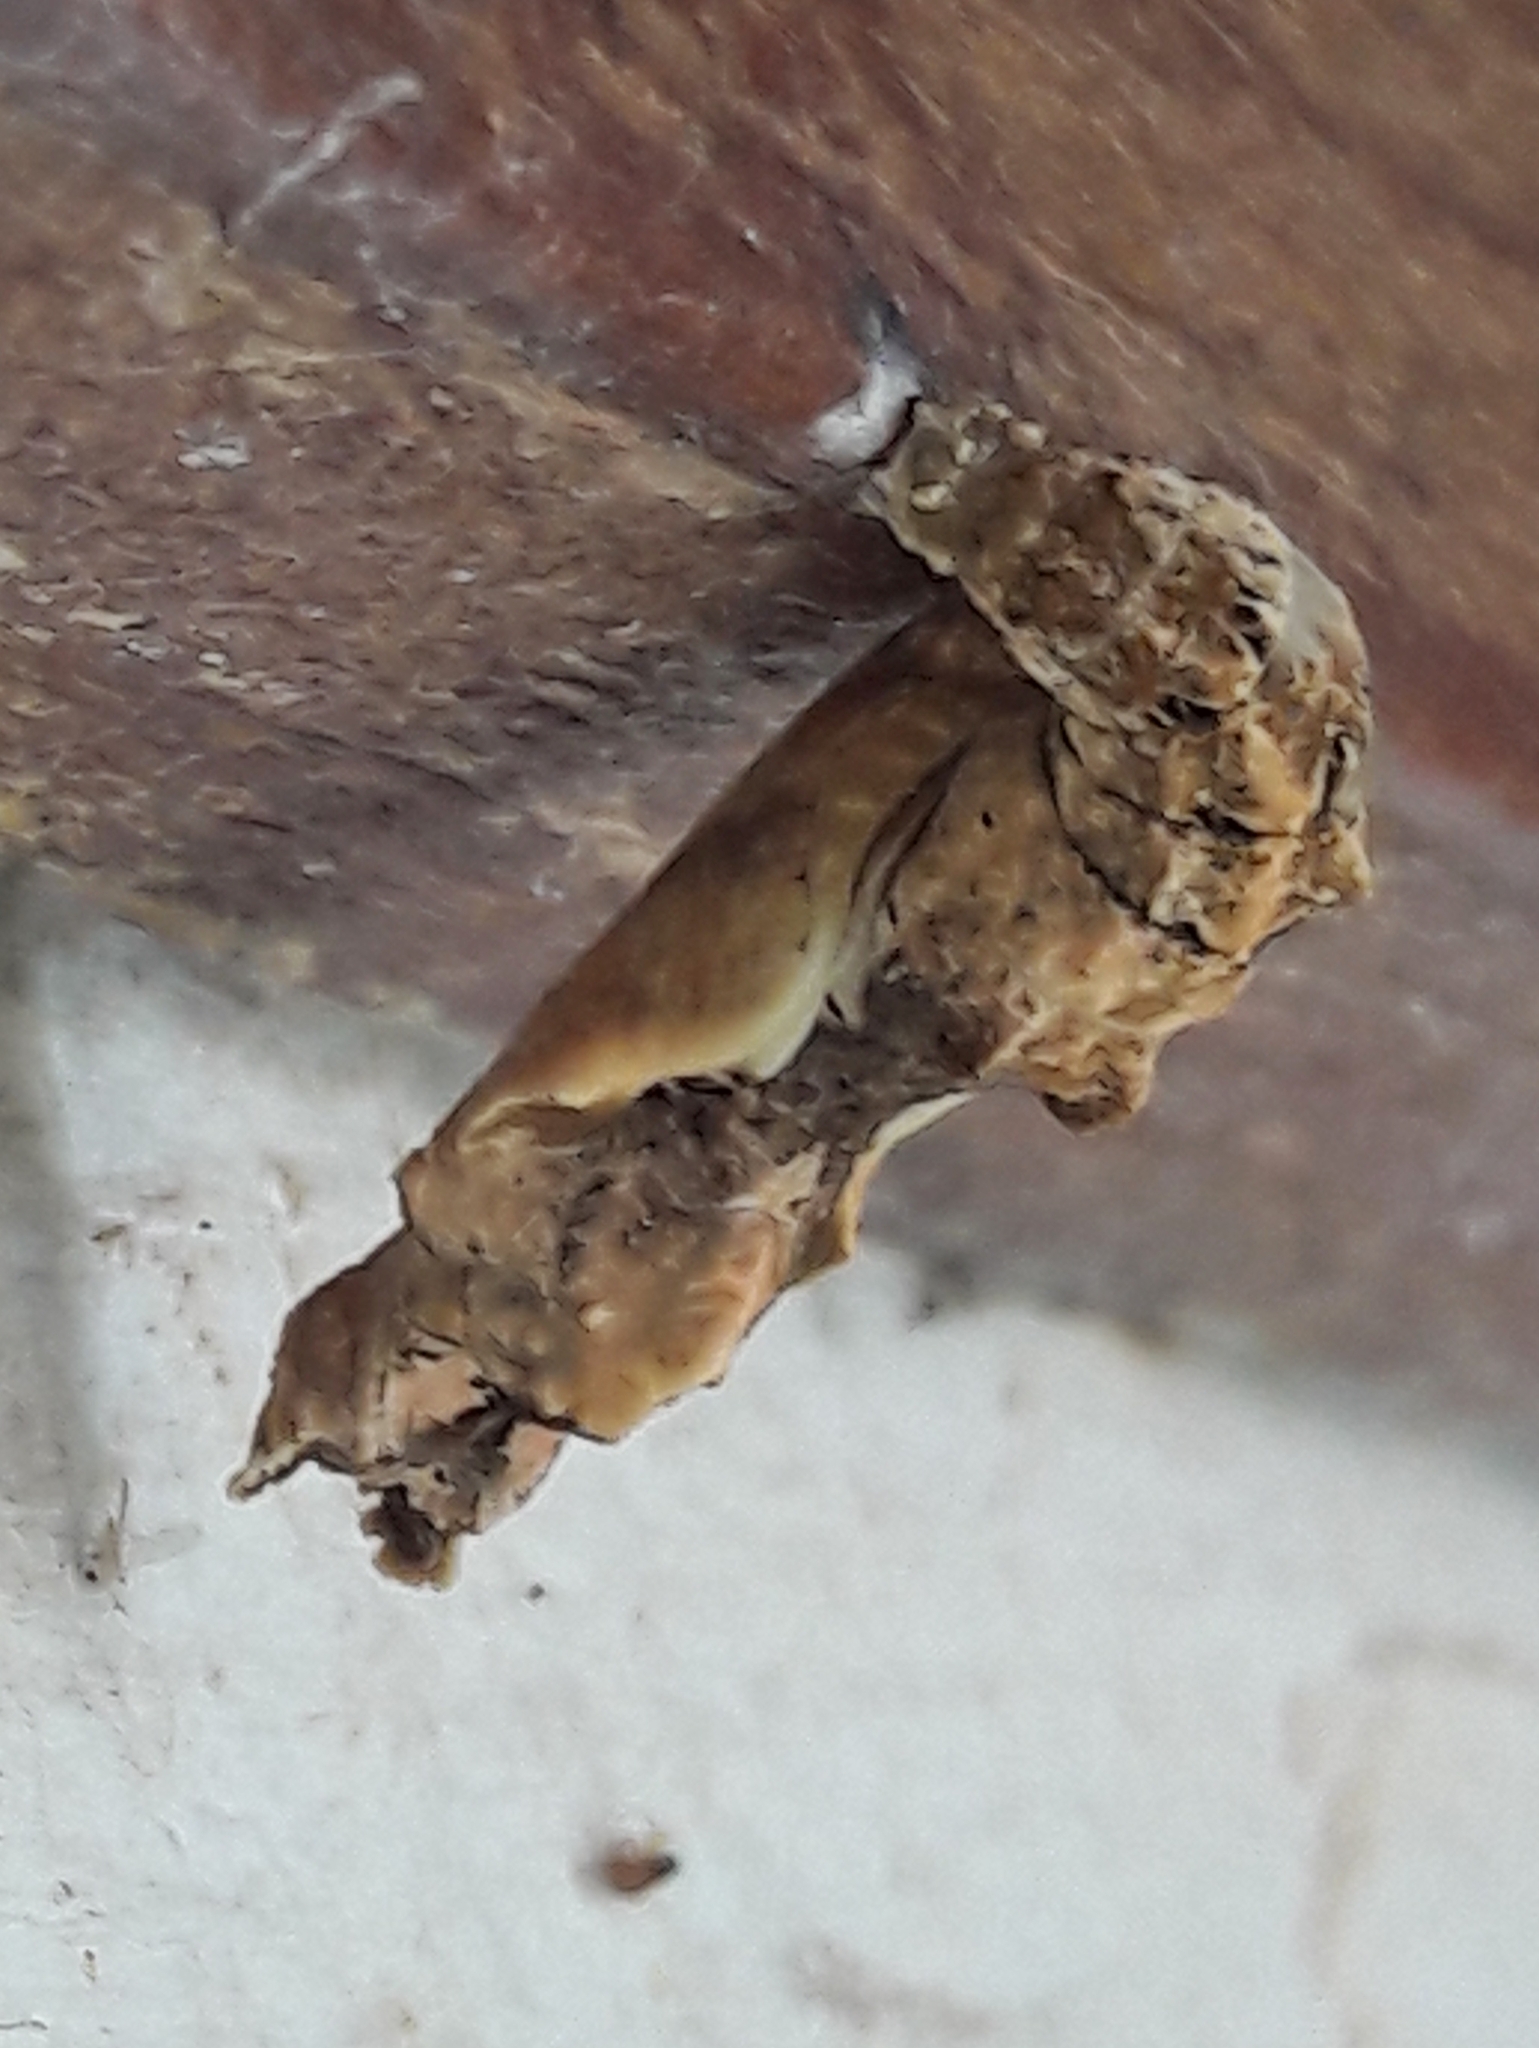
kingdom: Animalia
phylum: Arthropoda
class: Insecta
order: Lepidoptera
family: Nymphalidae
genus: Dione
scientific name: Dione vanillae
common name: Gulf fritillary
